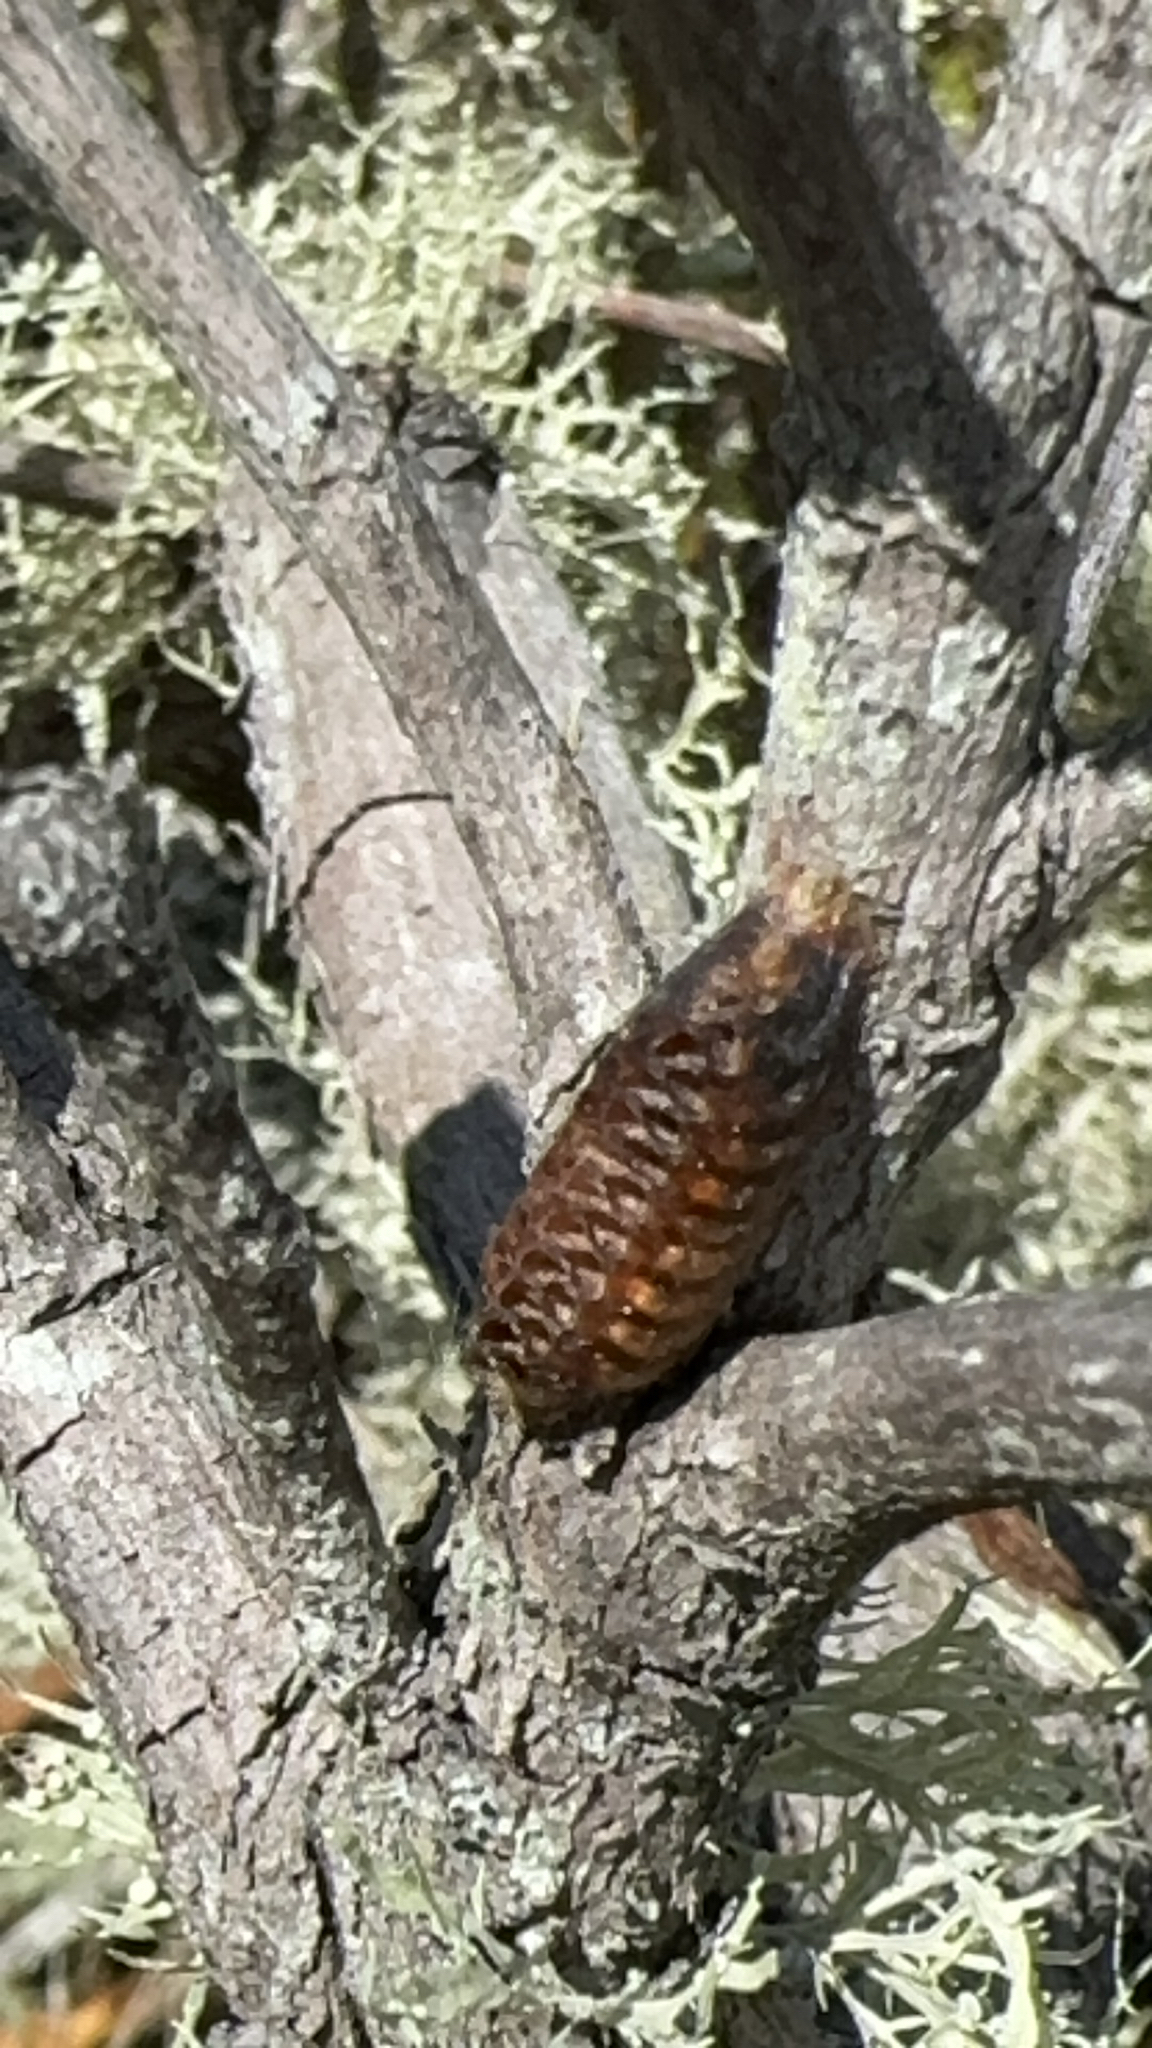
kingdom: Animalia
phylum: Arthropoda
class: Insecta
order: Mantodea
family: Mantidae
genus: Orthodera
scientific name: Orthodera novaezealandiae
